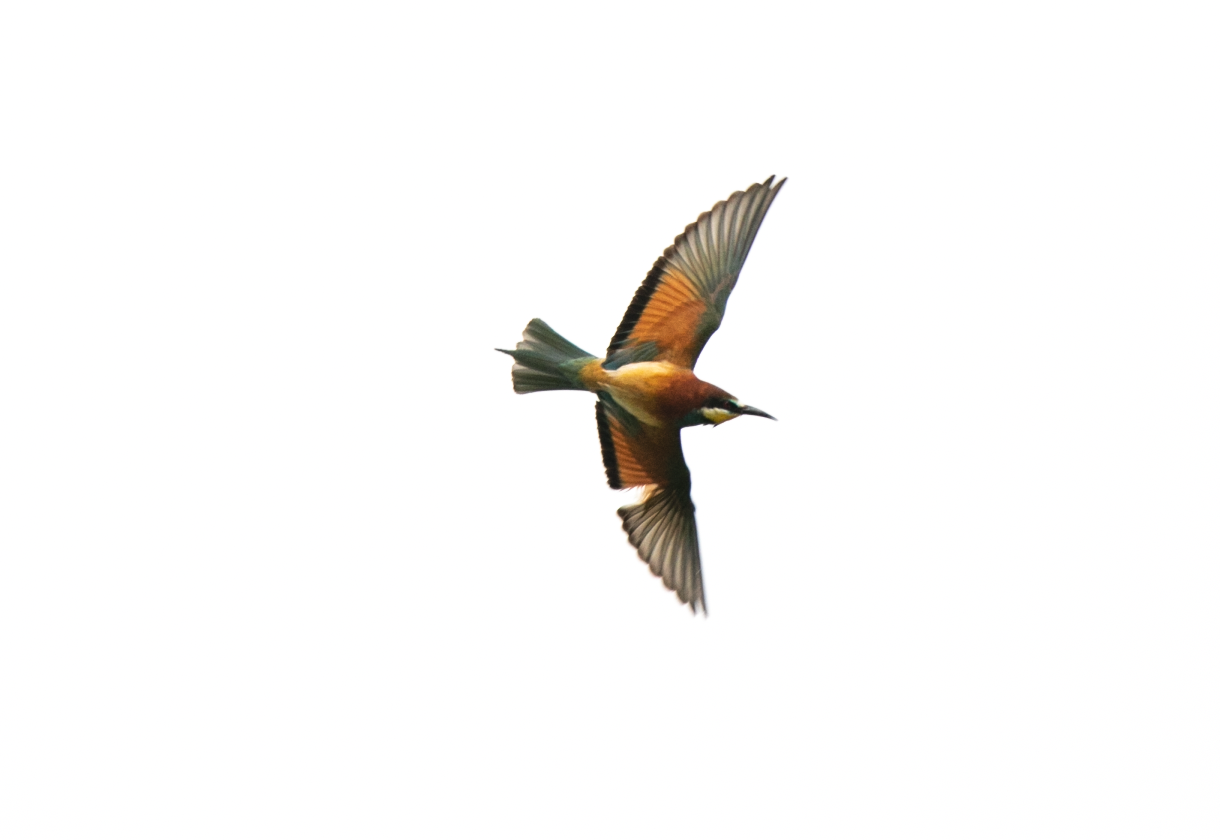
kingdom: Animalia
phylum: Chordata
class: Aves
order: Coraciiformes
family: Meropidae
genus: Merops
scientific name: Merops apiaster
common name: European bee-eater
